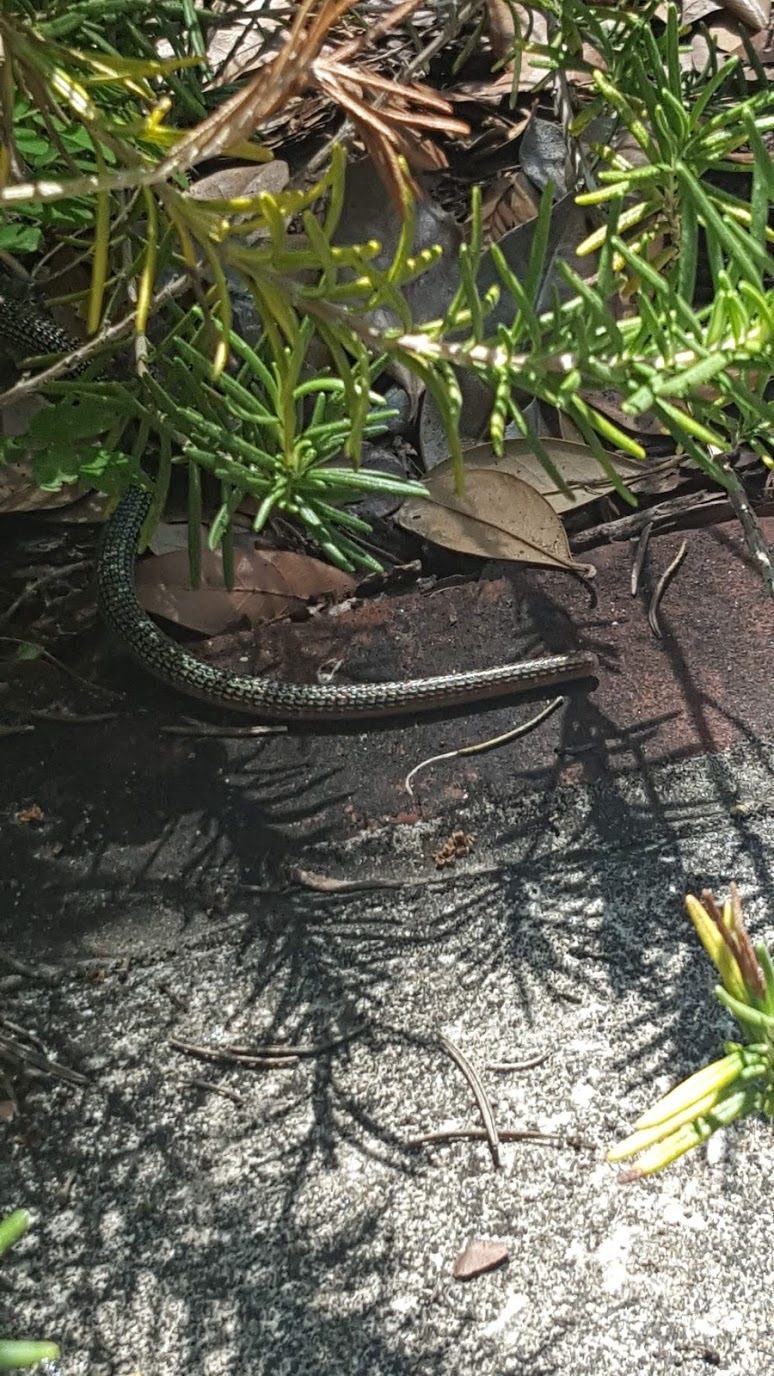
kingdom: Animalia
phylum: Chordata
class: Squamata
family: Anguidae
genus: Ophisaurus
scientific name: Ophisaurus ventralis
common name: Eastern glass lizard
